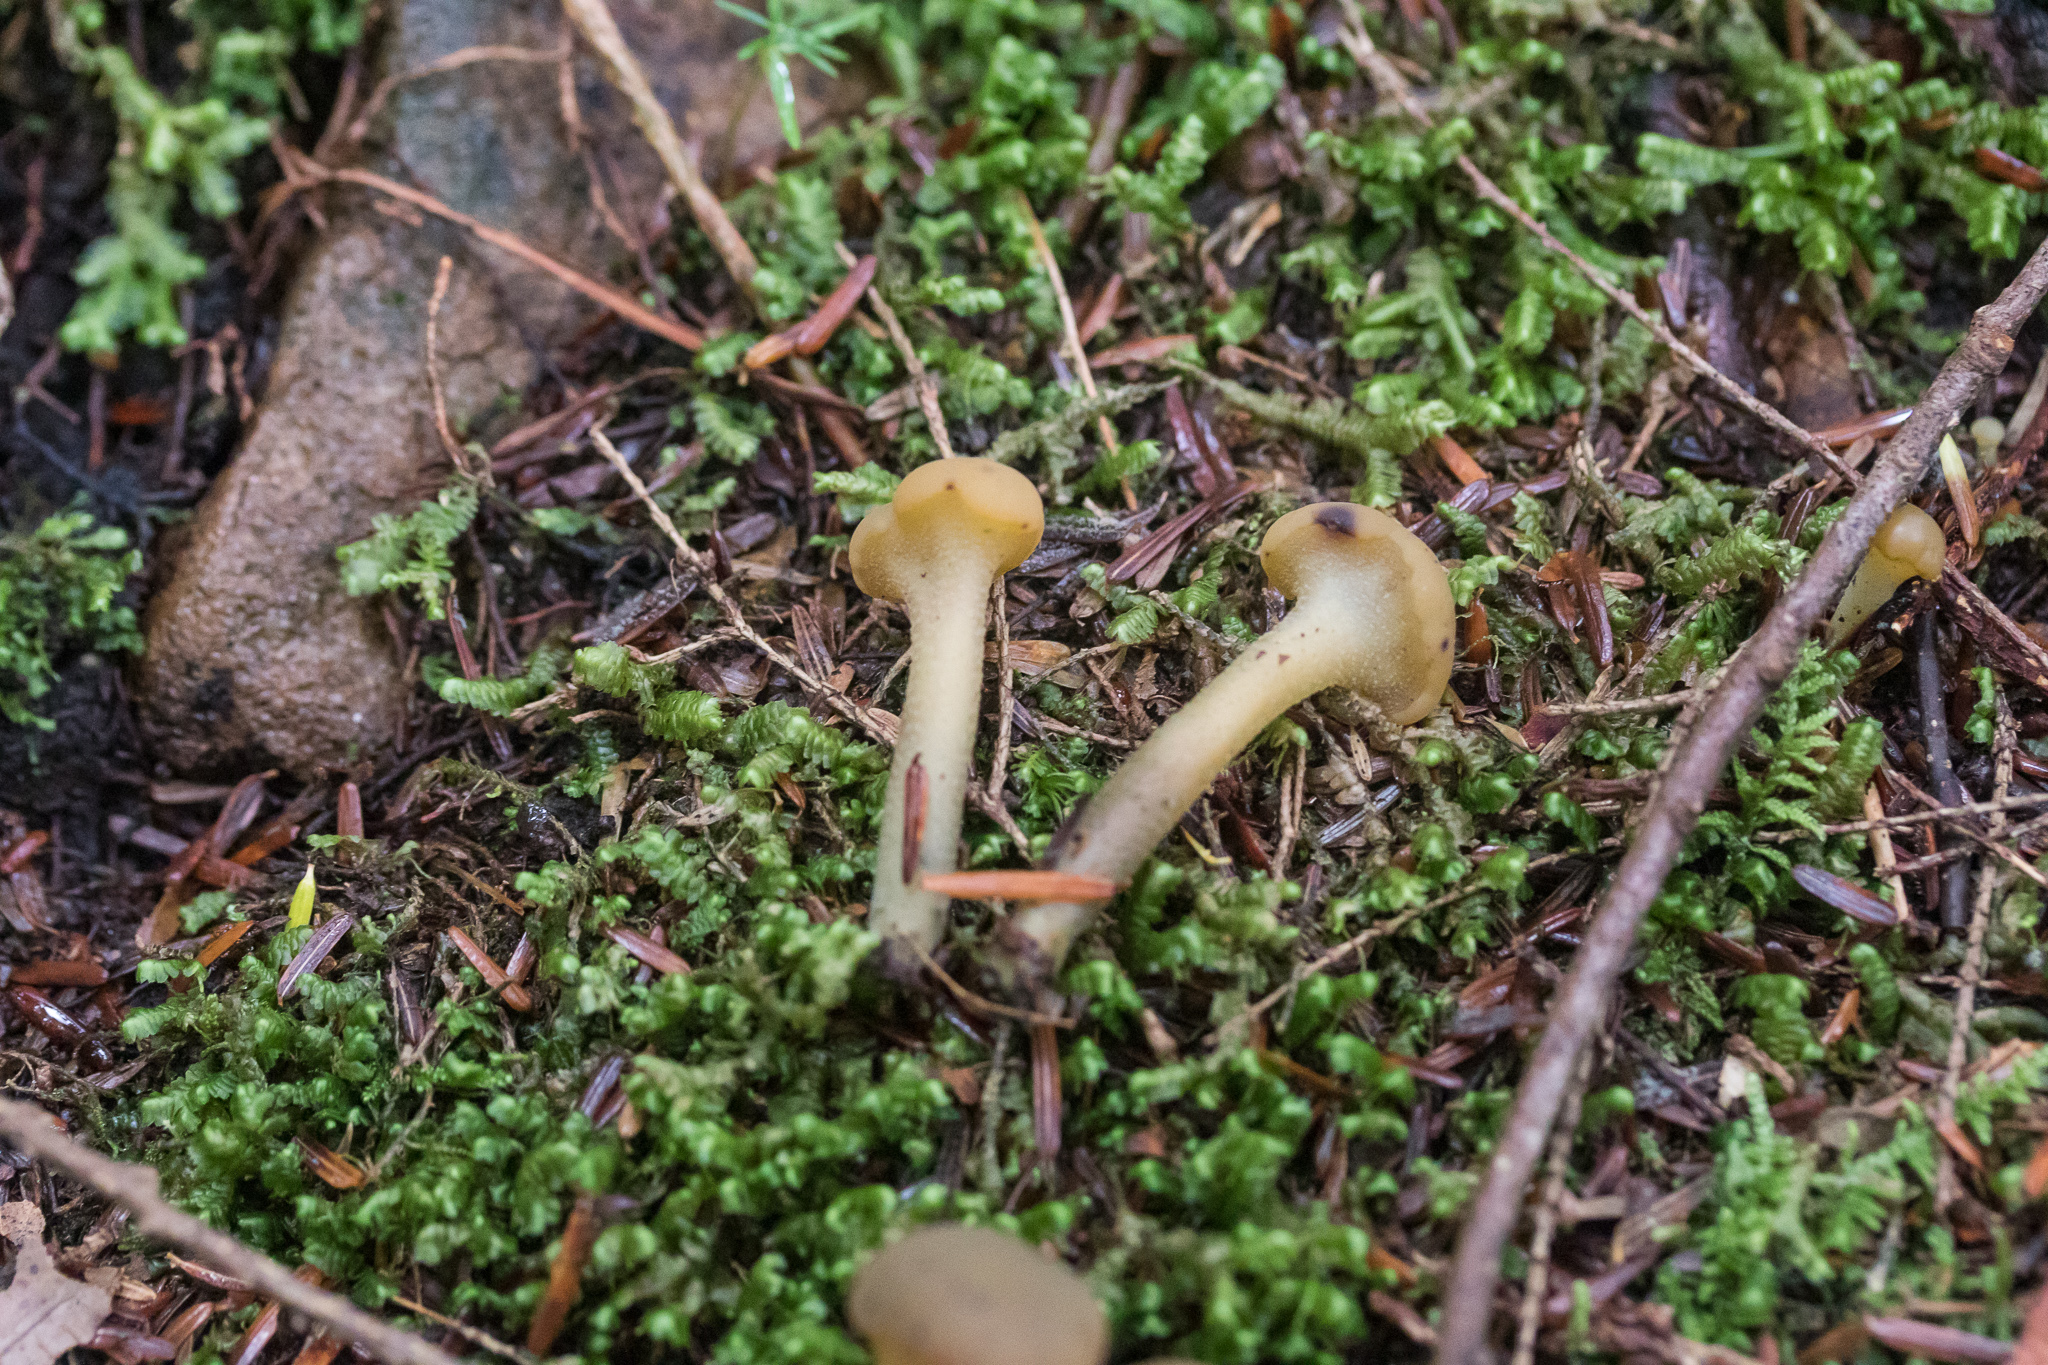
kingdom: Fungi
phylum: Ascomycota
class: Leotiomycetes
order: Leotiales
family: Leotiaceae
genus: Leotia
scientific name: Leotia lubrica
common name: Jellybaby
